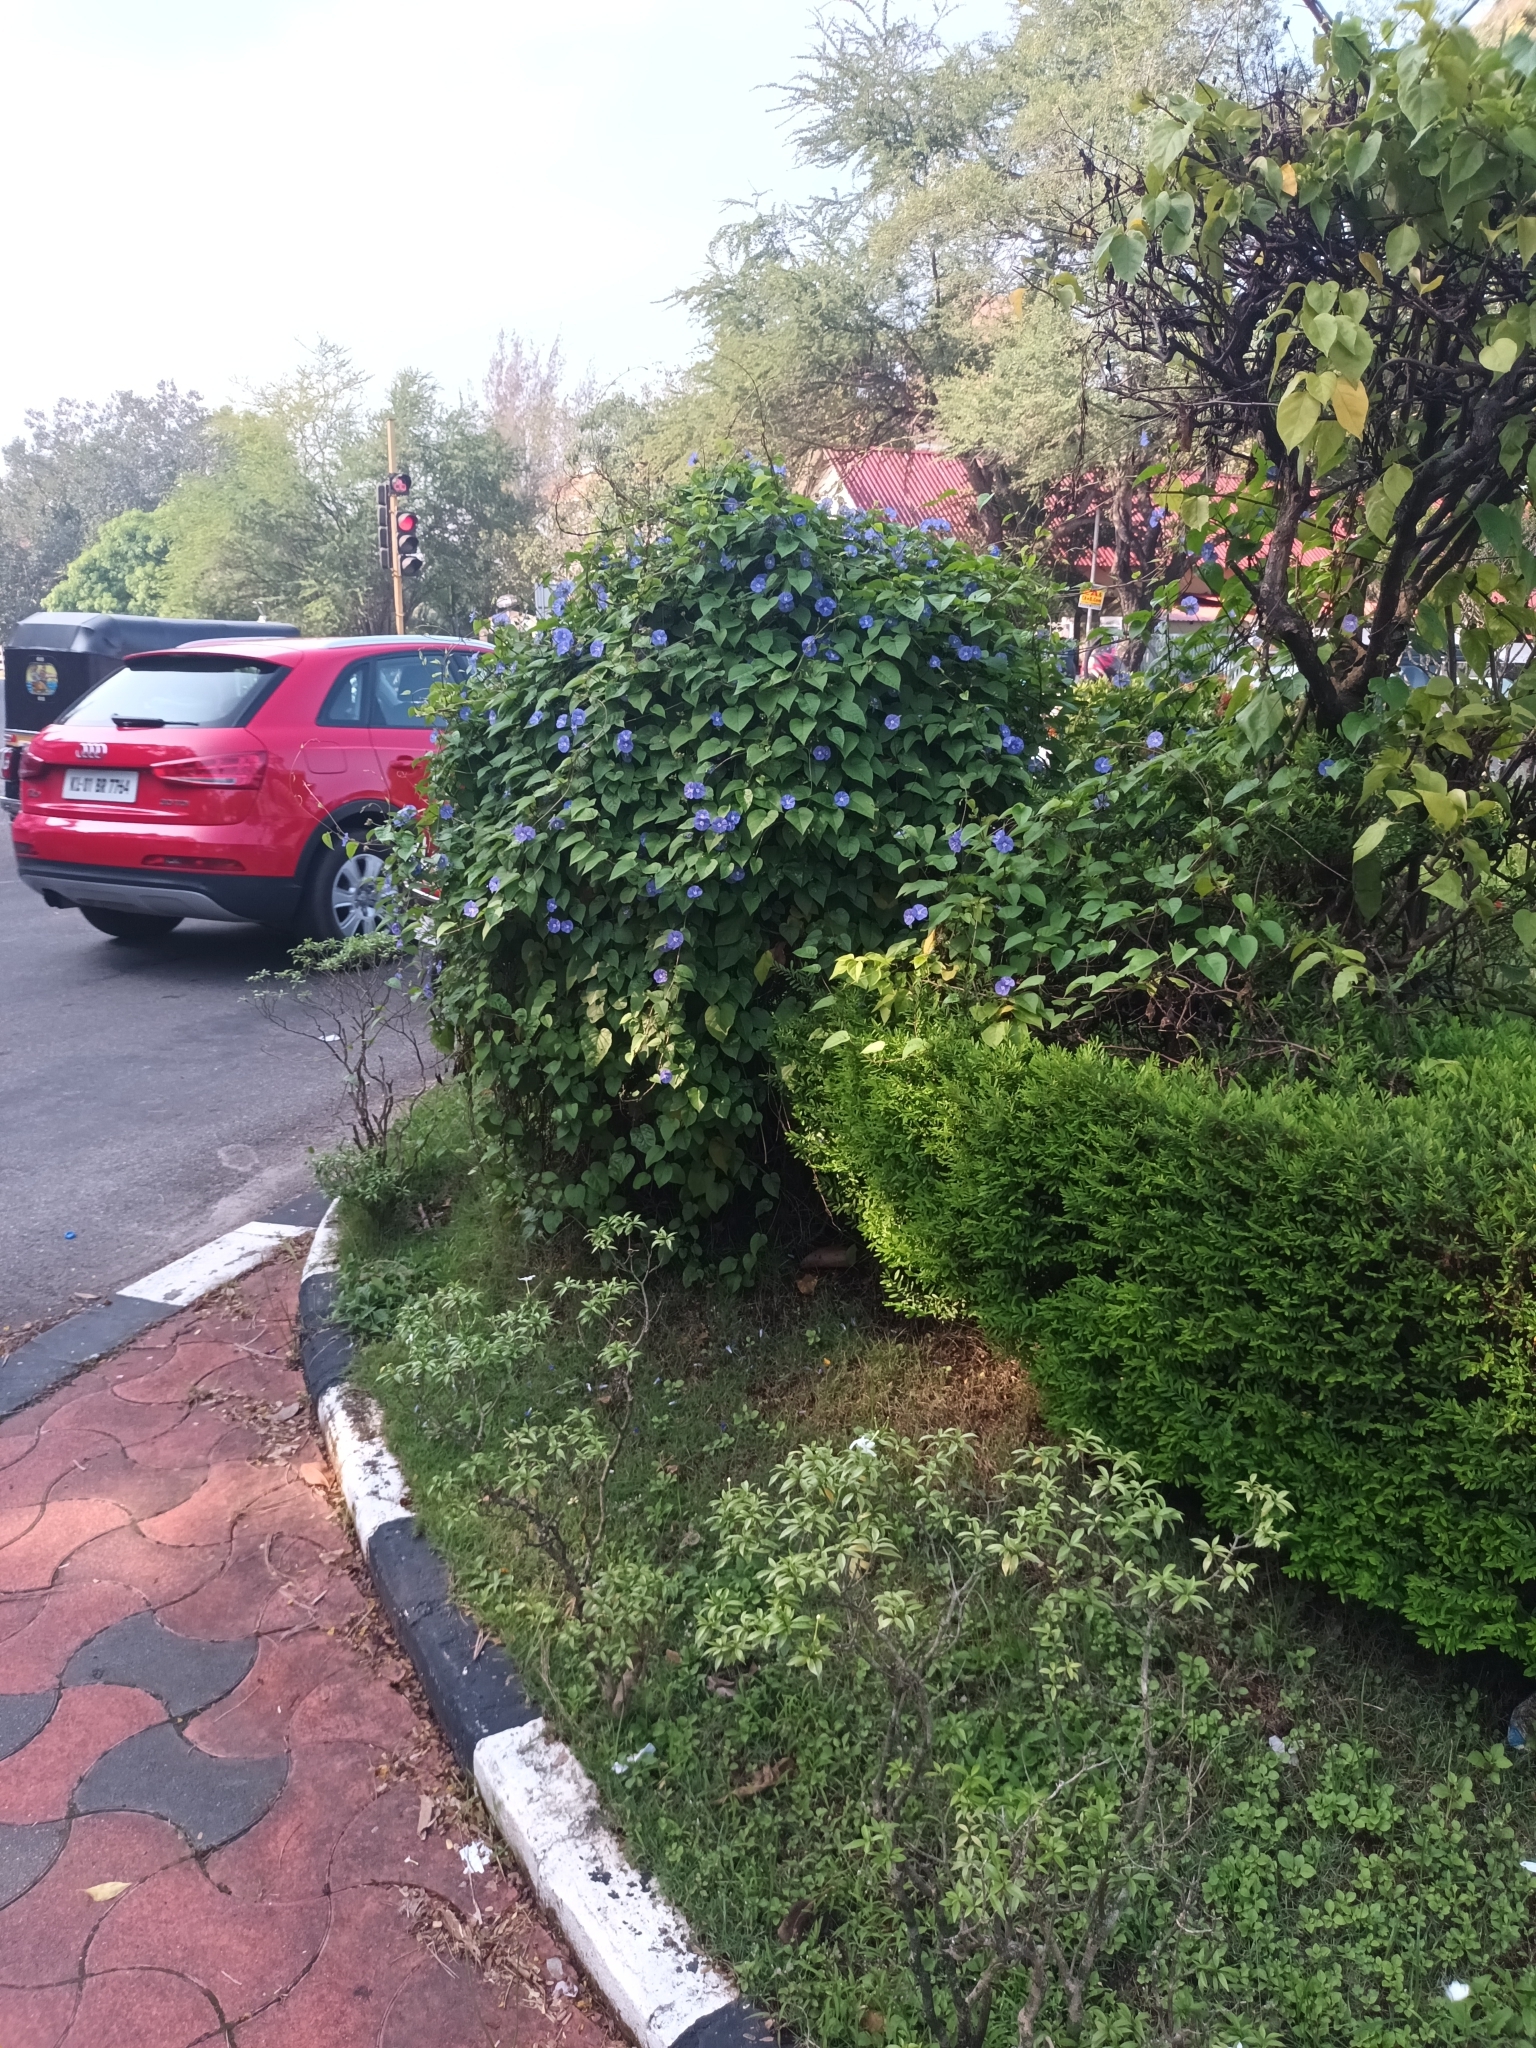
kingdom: Plantae
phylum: Tracheophyta
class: Magnoliopsida
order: Solanales
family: Convolvulaceae
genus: Jacquemontia
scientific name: Jacquemontia pentanthos
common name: Skyblue clustervine
